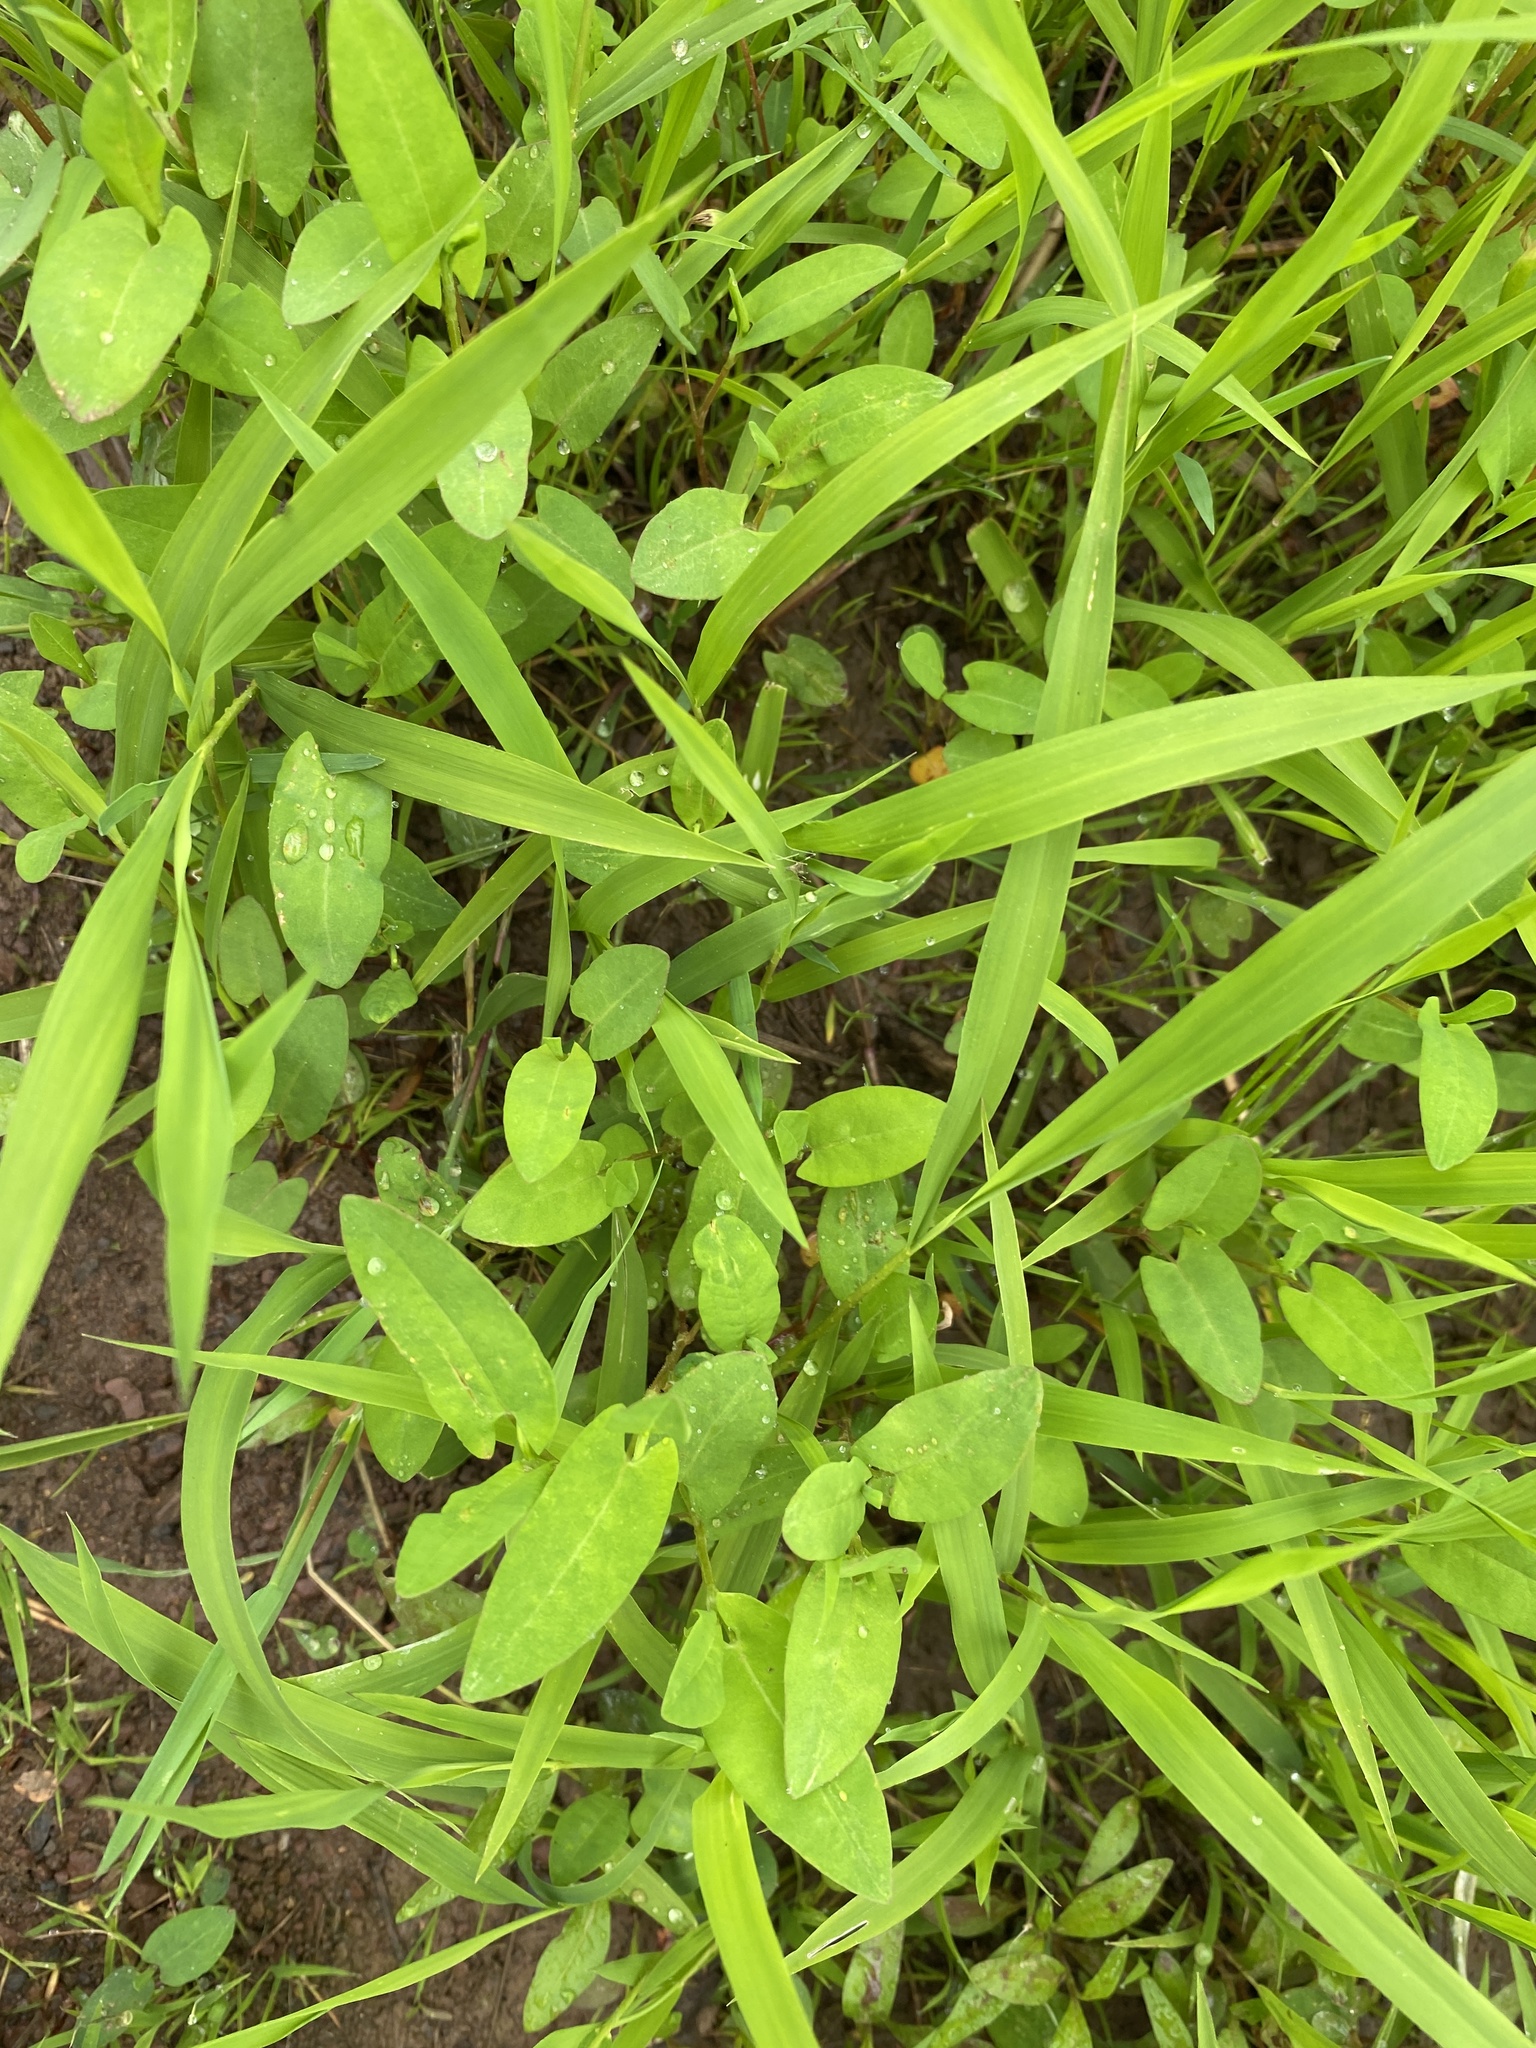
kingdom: Plantae
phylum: Tracheophyta
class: Magnoliopsida
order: Caryophyllales
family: Polygonaceae
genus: Persicaria
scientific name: Persicaria sagittata
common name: American tearthumb
